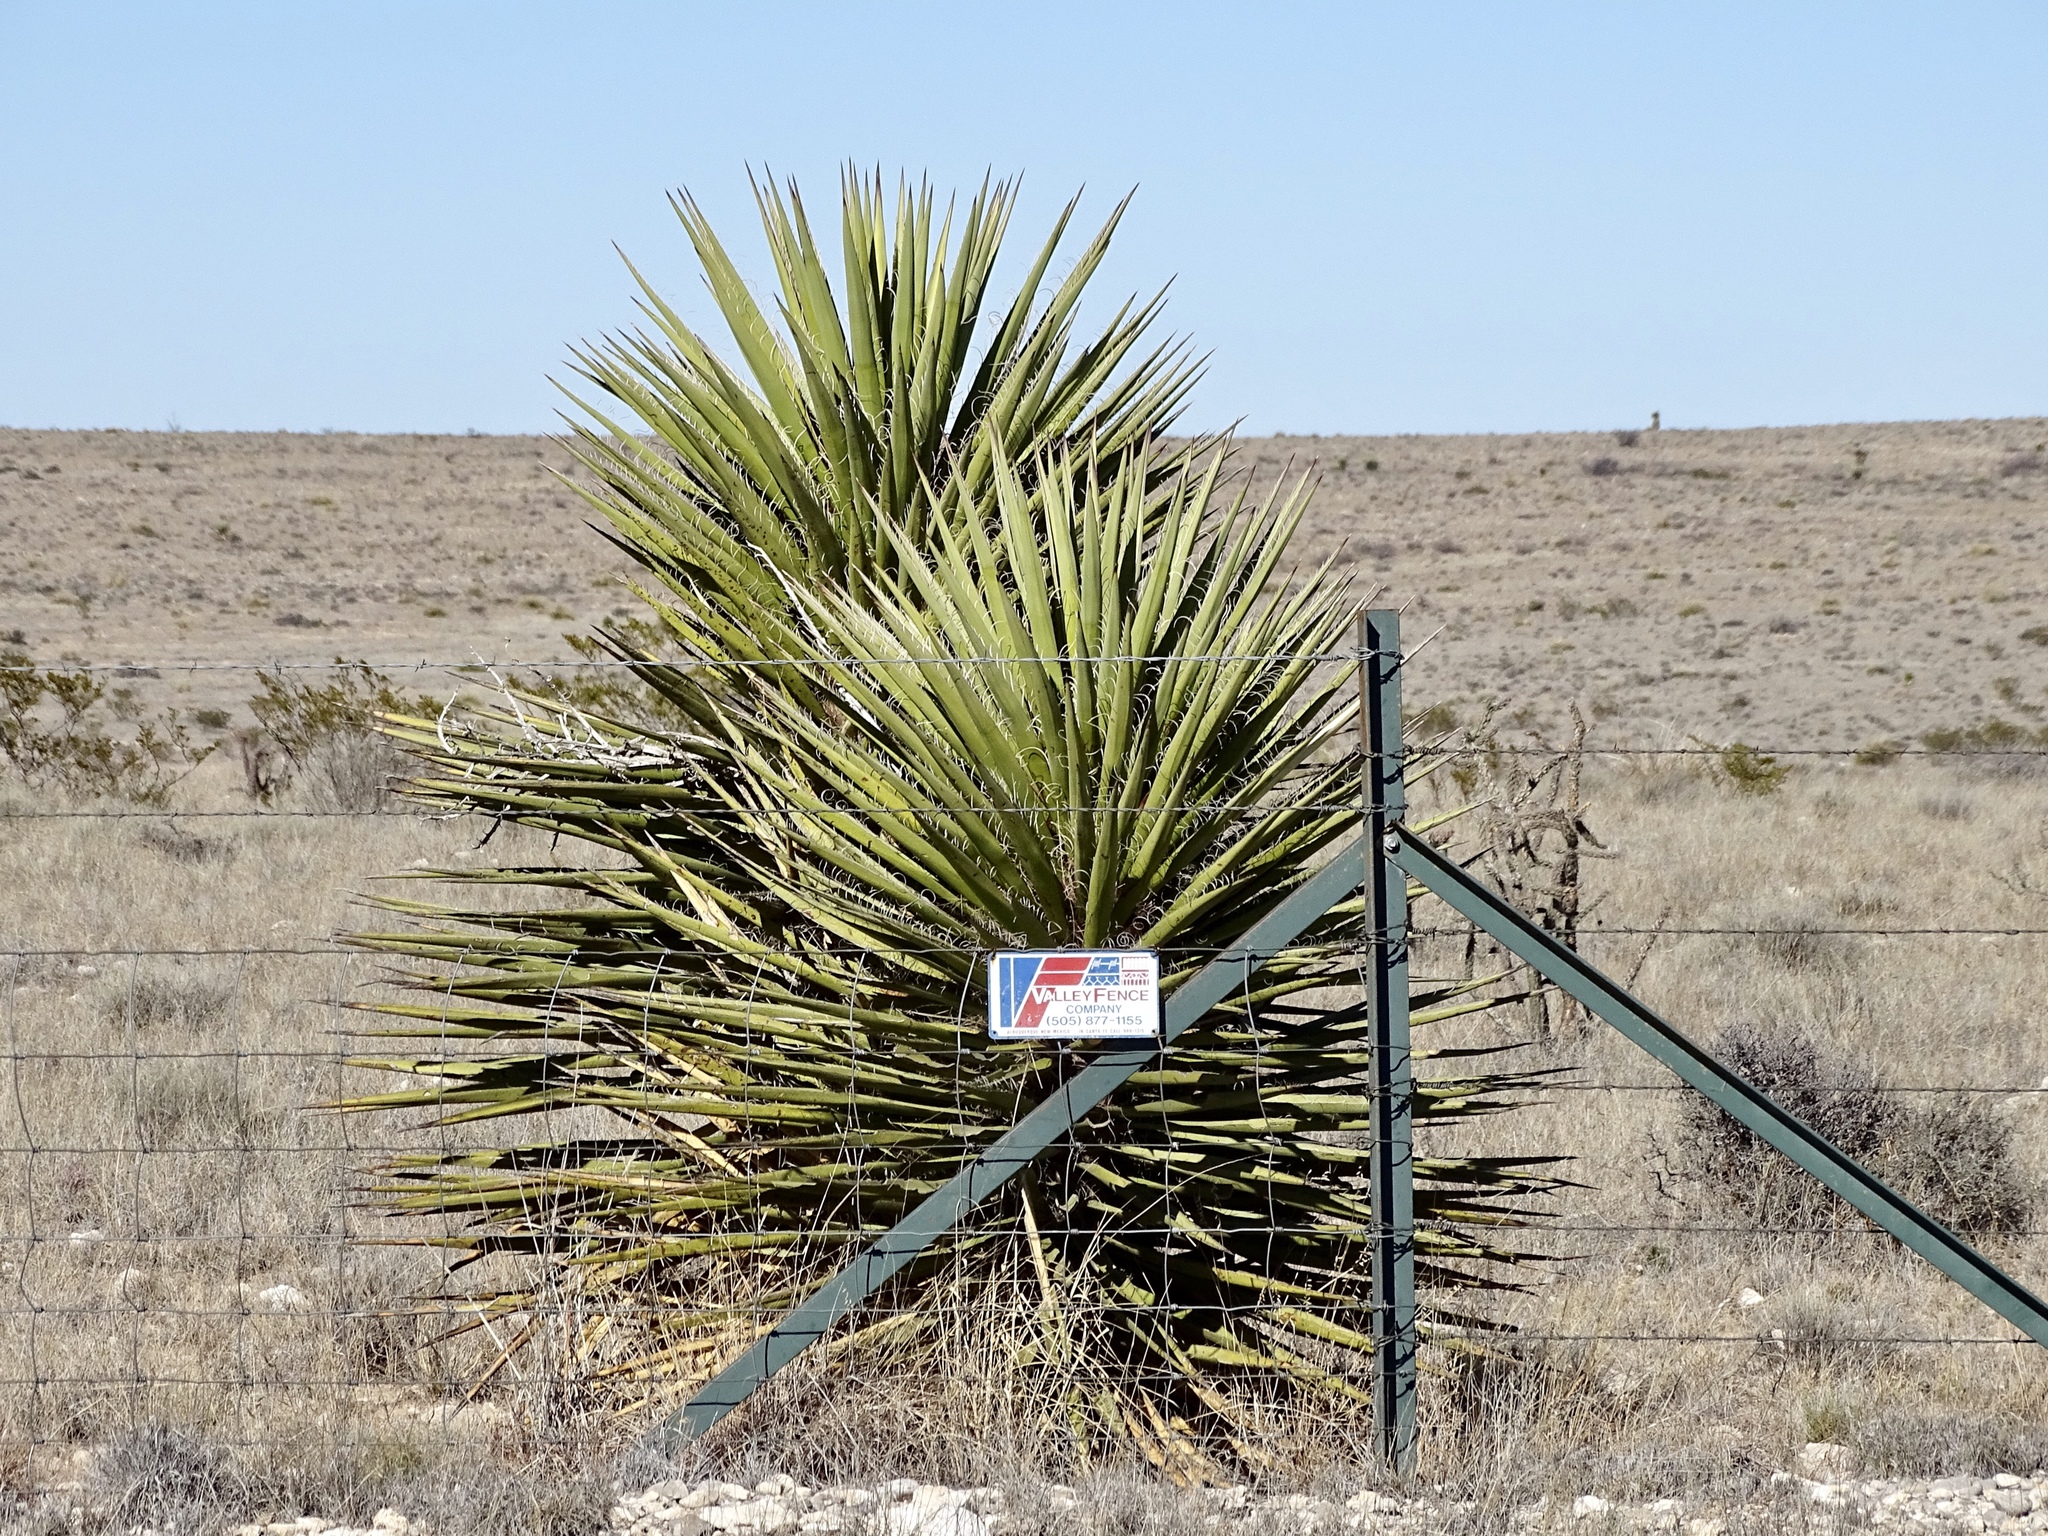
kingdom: Plantae
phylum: Tracheophyta
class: Liliopsida
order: Asparagales
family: Asparagaceae
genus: Yucca
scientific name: Yucca treculiana
